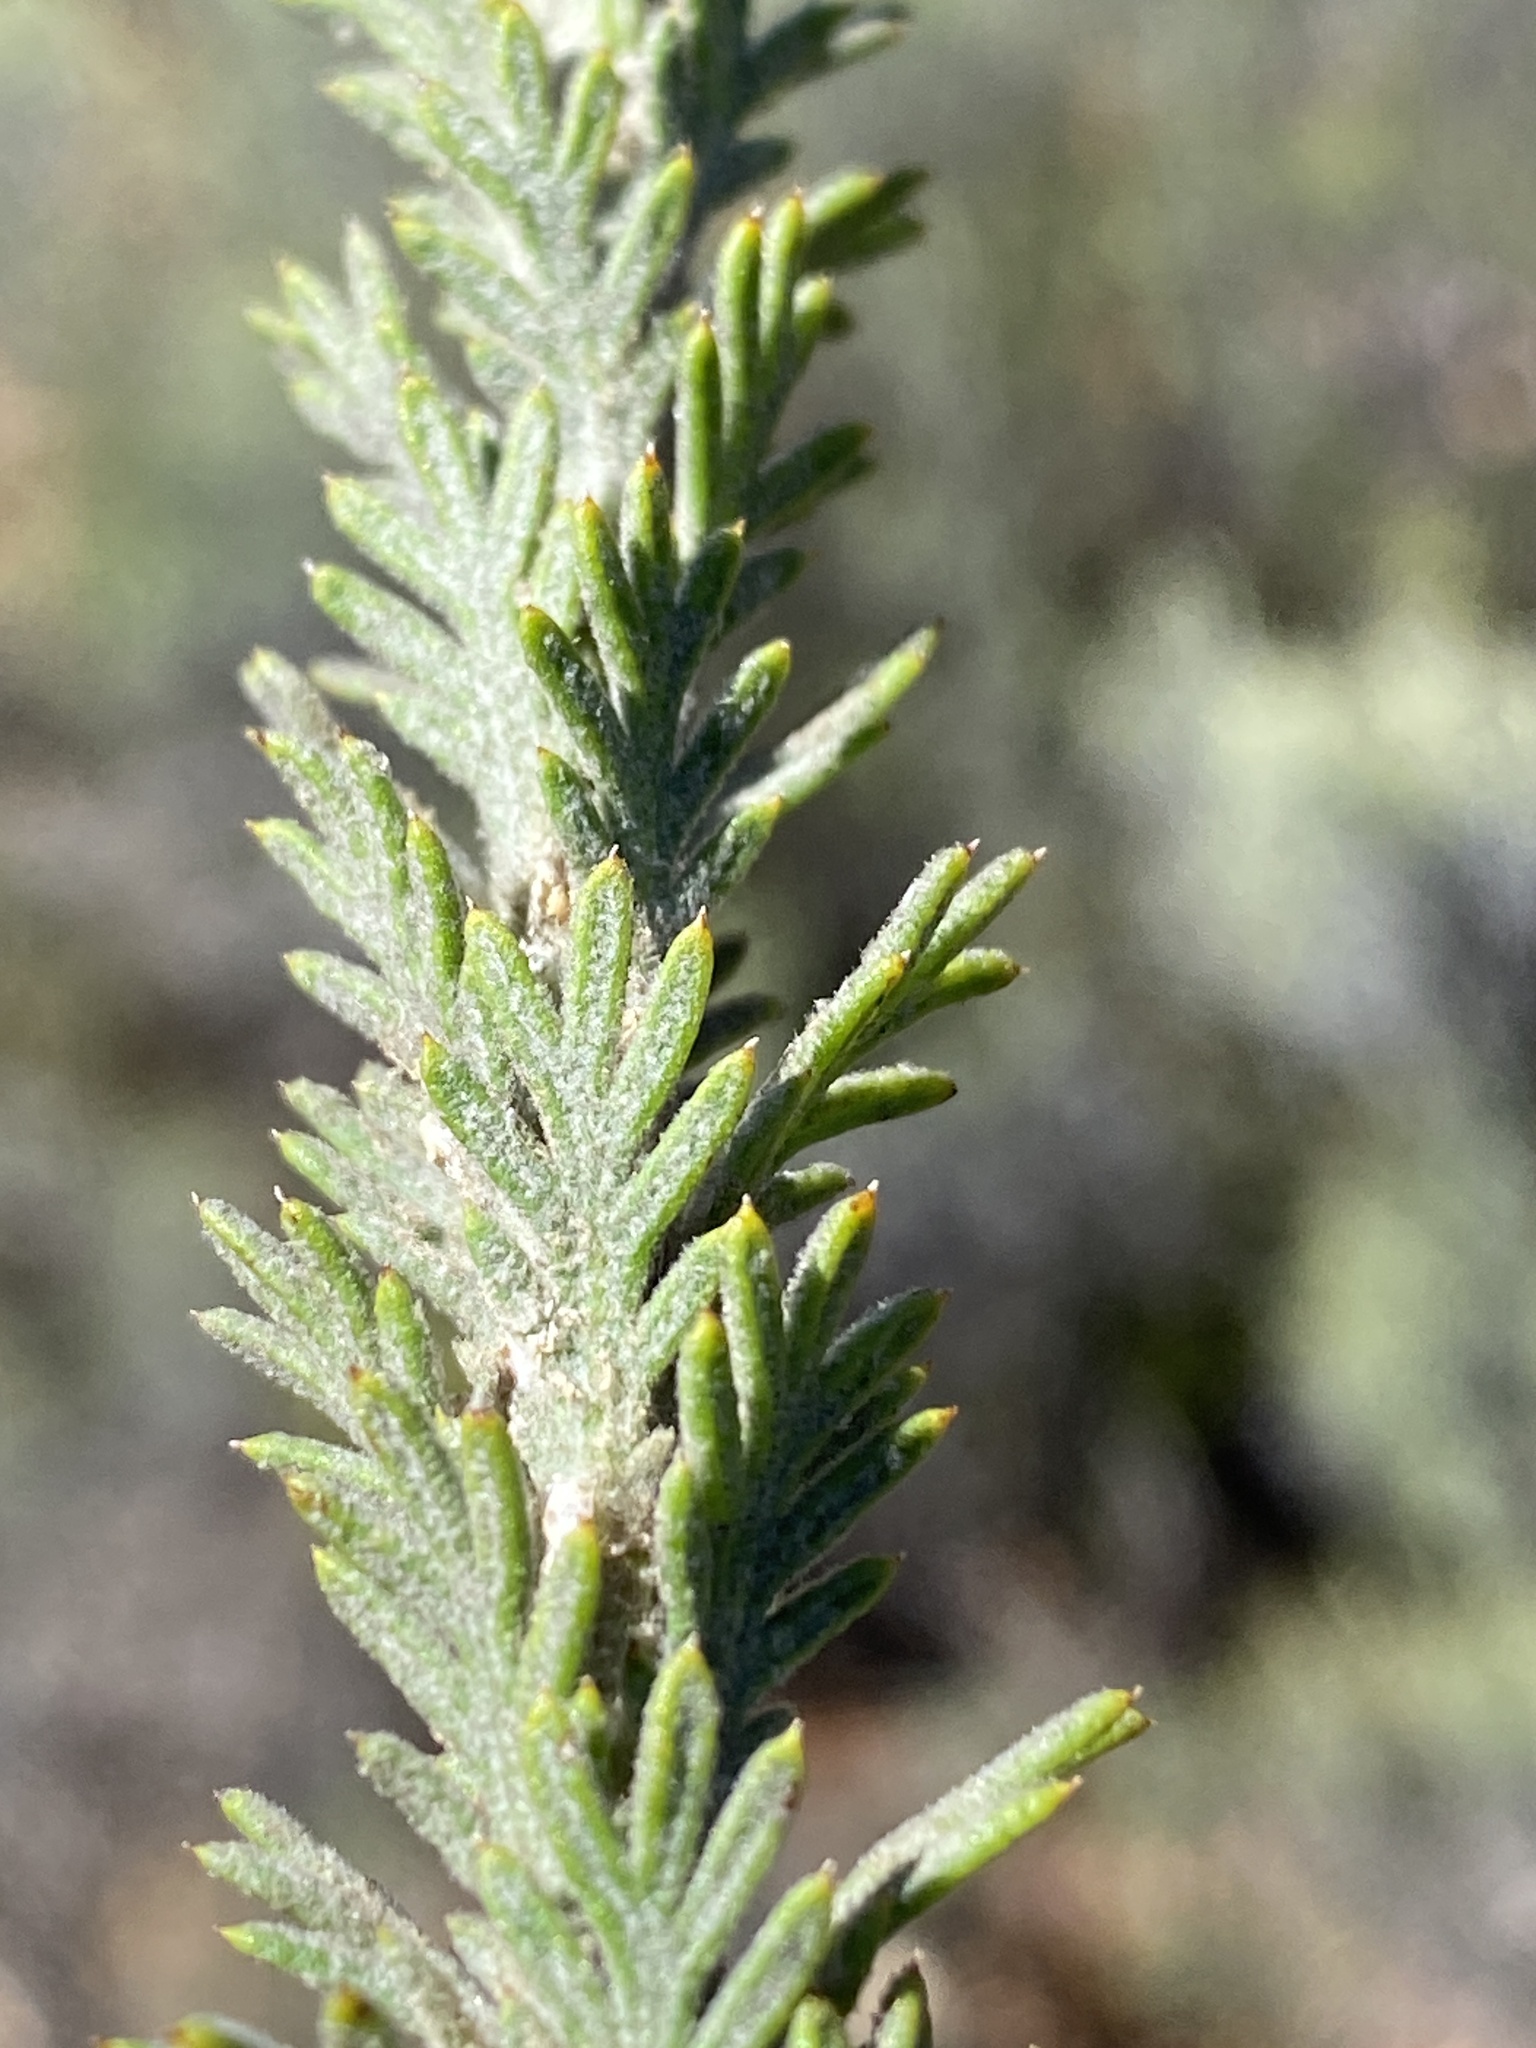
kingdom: Plantae
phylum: Tracheophyta
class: Magnoliopsida
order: Asterales
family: Asteraceae
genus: Athanasia
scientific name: Athanasia pinnata
